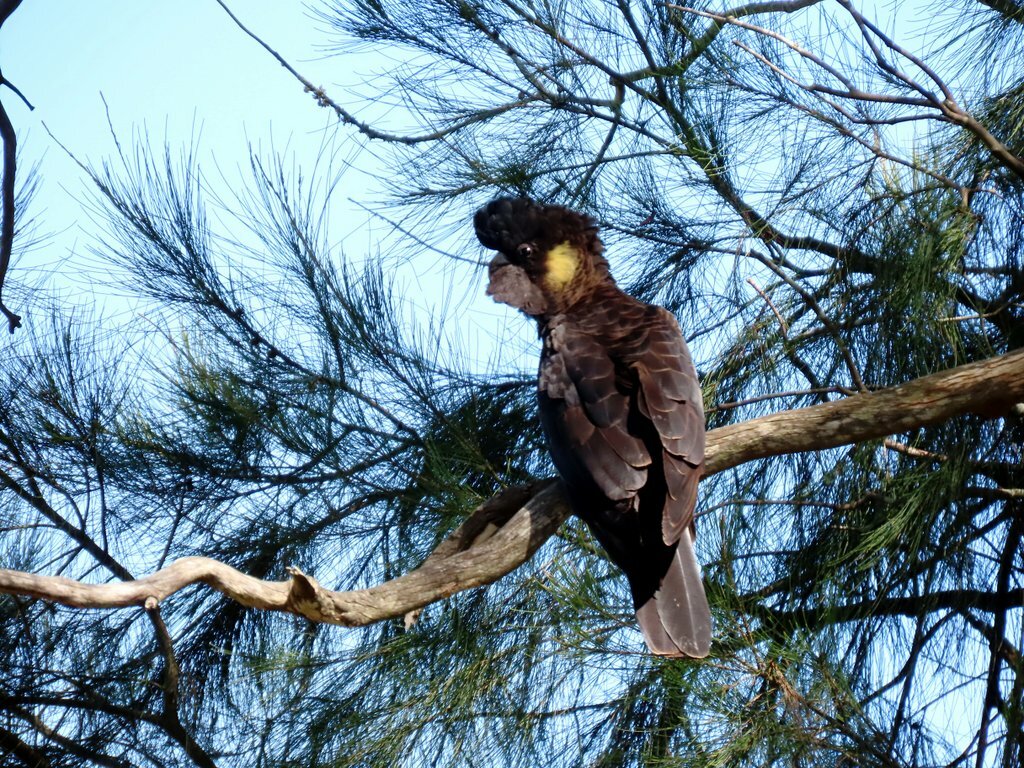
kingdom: Animalia
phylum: Chordata
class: Aves
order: Psittaciformes
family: Cacatuidae
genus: Zanda
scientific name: Zanda funerea
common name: Yellow-tailed black-cockatoo
